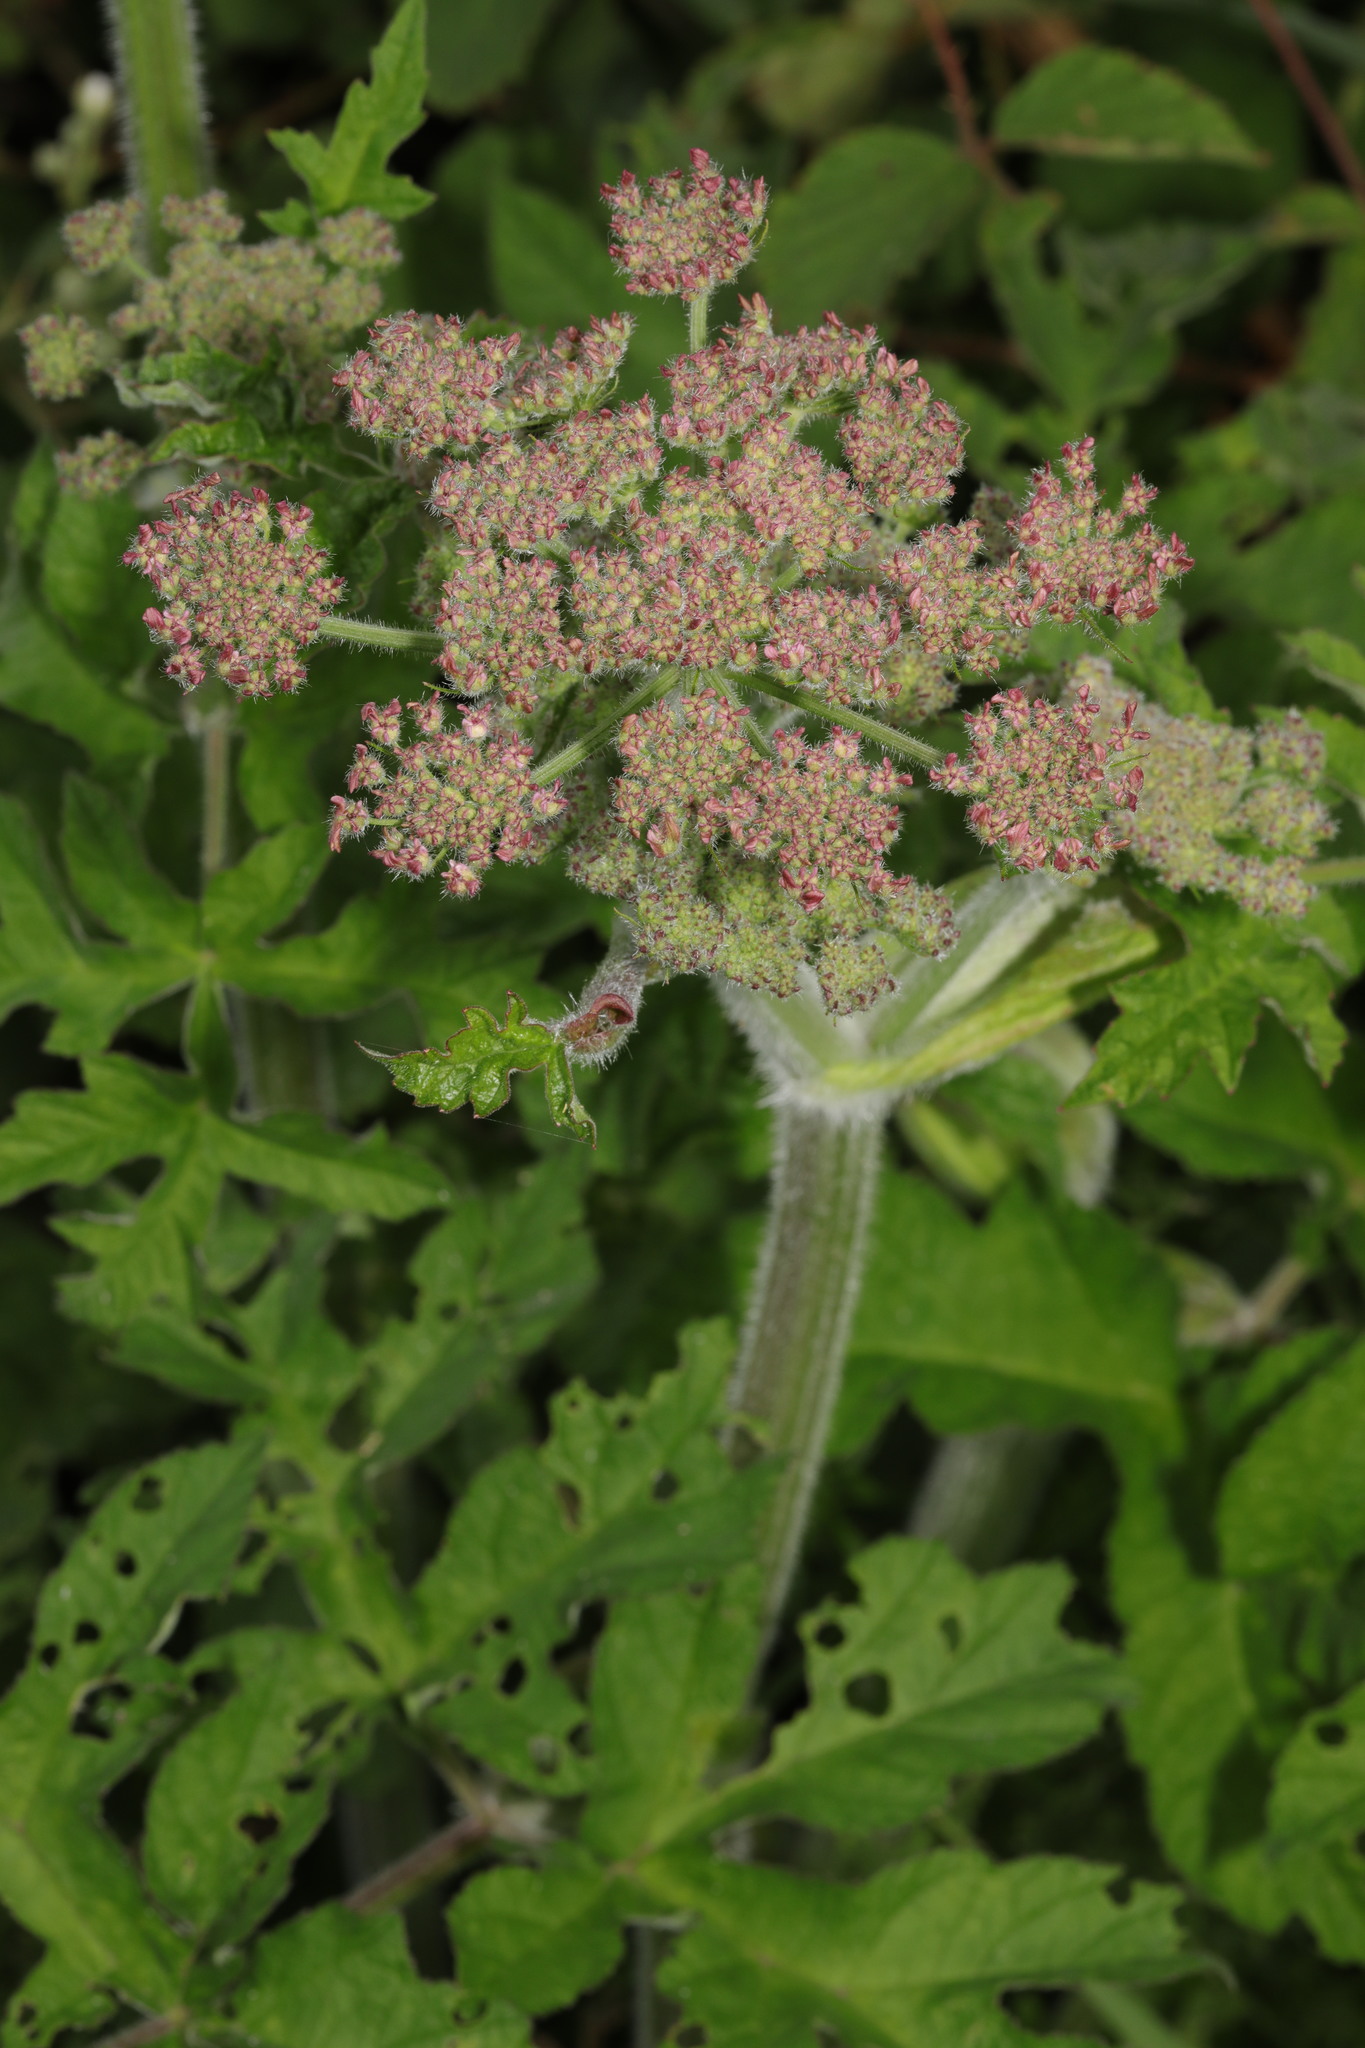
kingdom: Plantae
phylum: Tracheophyta
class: Magnoliopsida
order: Apiales
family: Apiaceae
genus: Heracleum
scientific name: Heracleum sphondylium
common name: Hogweed
